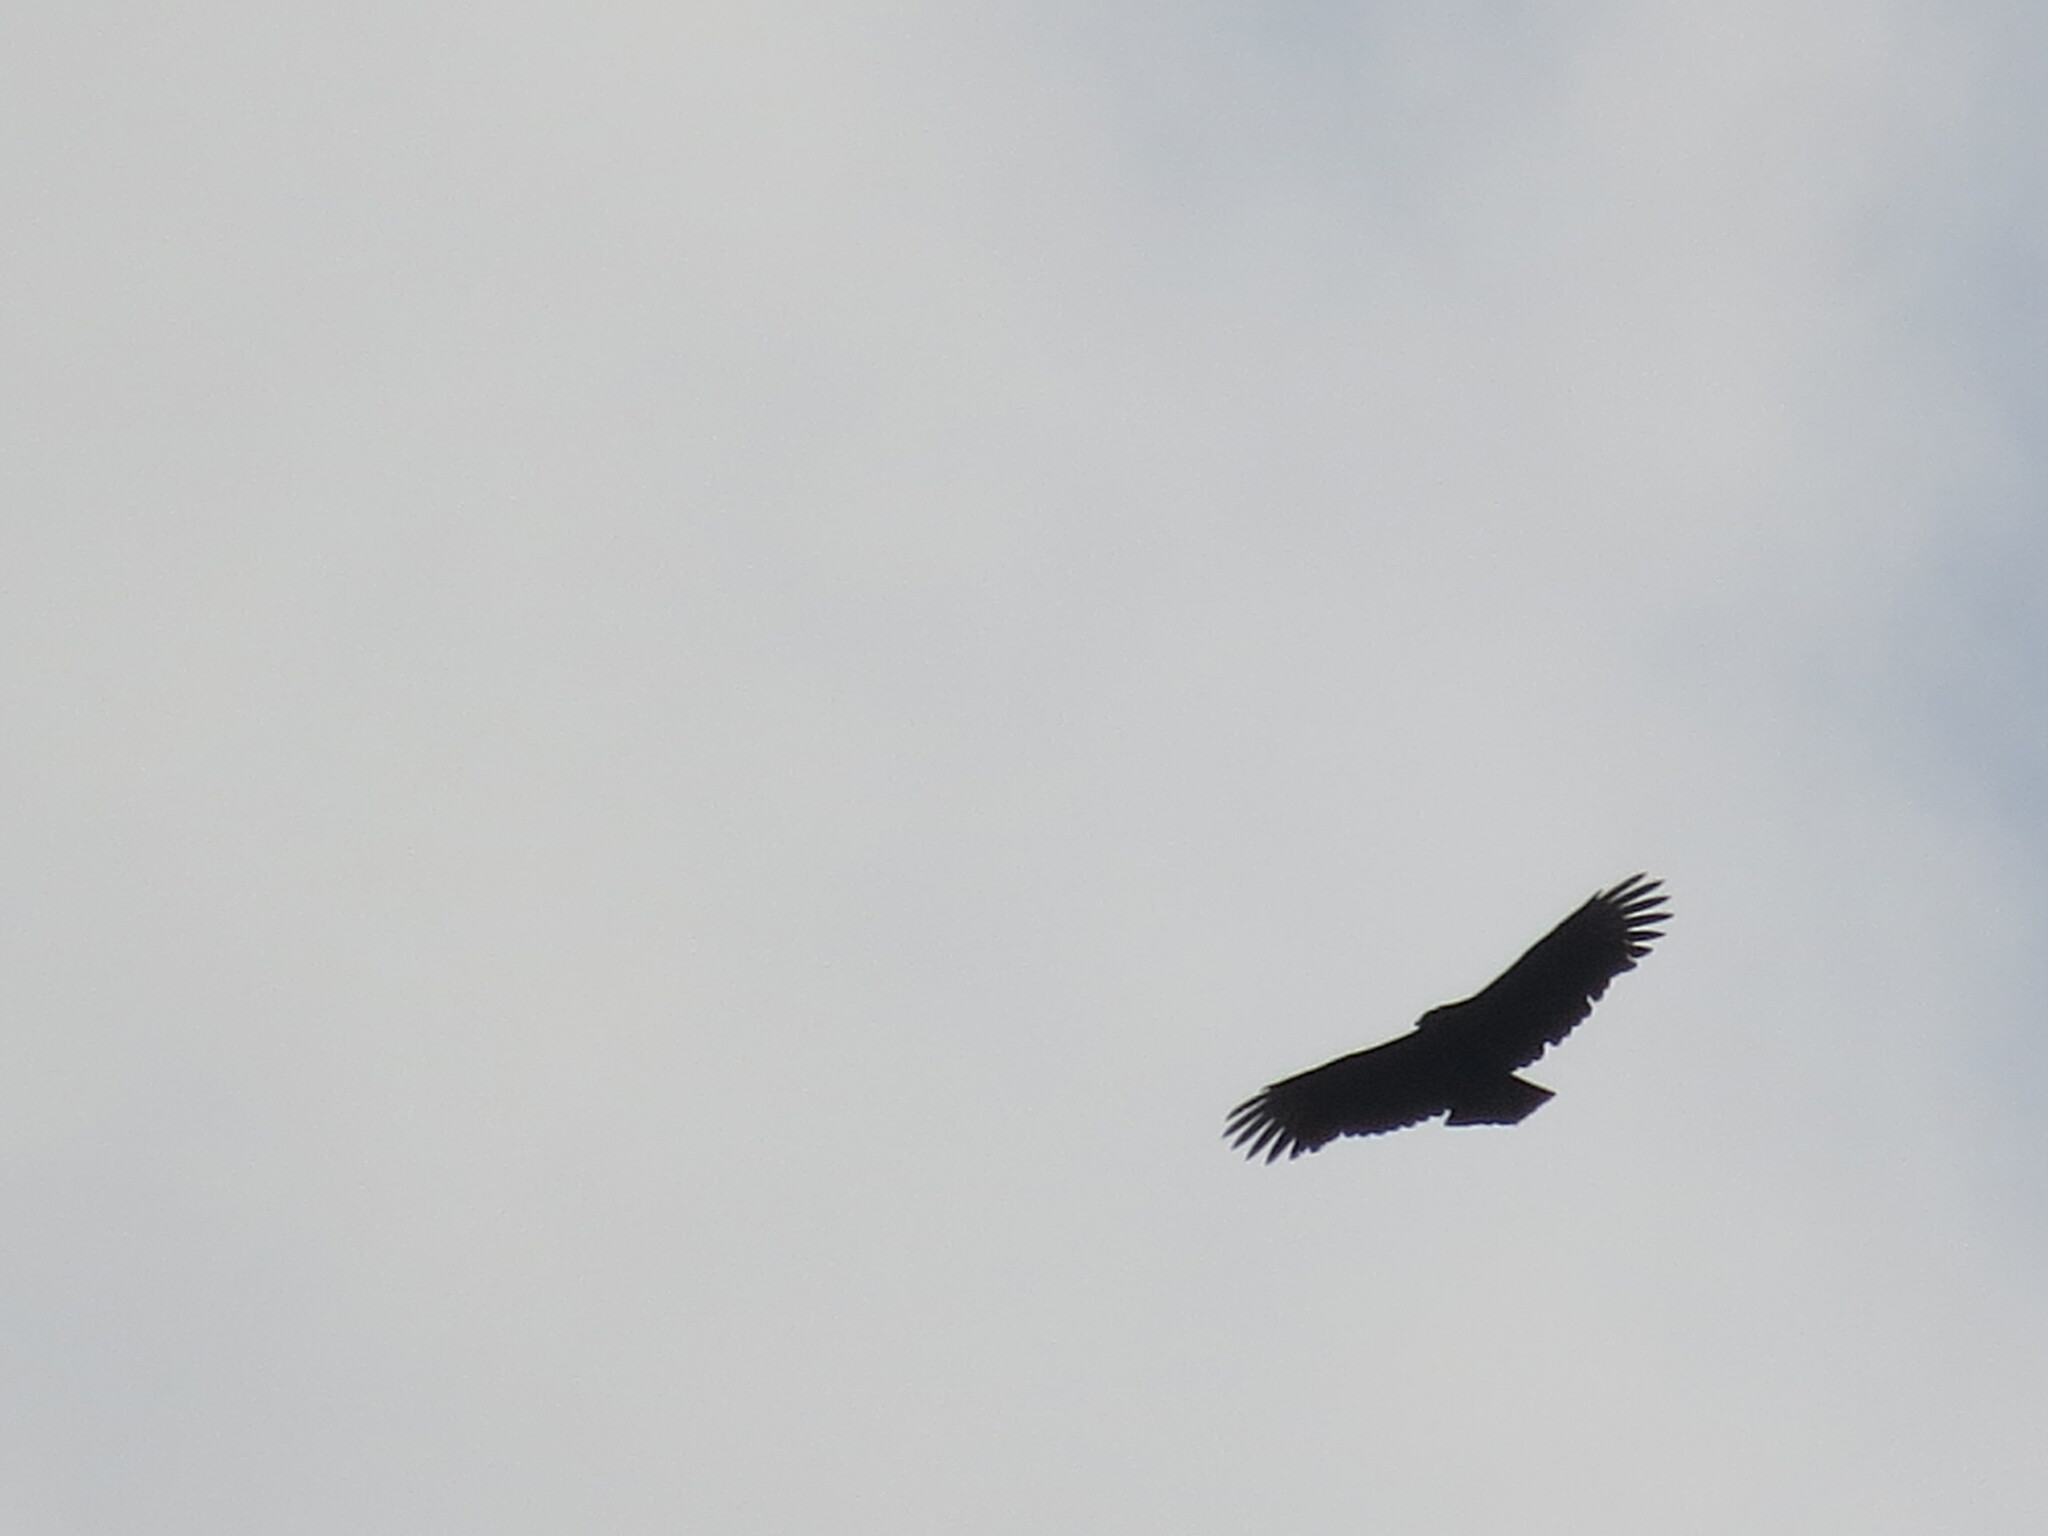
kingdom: Animalia
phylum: Chordata
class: Aves
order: Accipitriformes
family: Cathartidae
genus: Coragyps
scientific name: Coragyps atratus
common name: Black vulture
